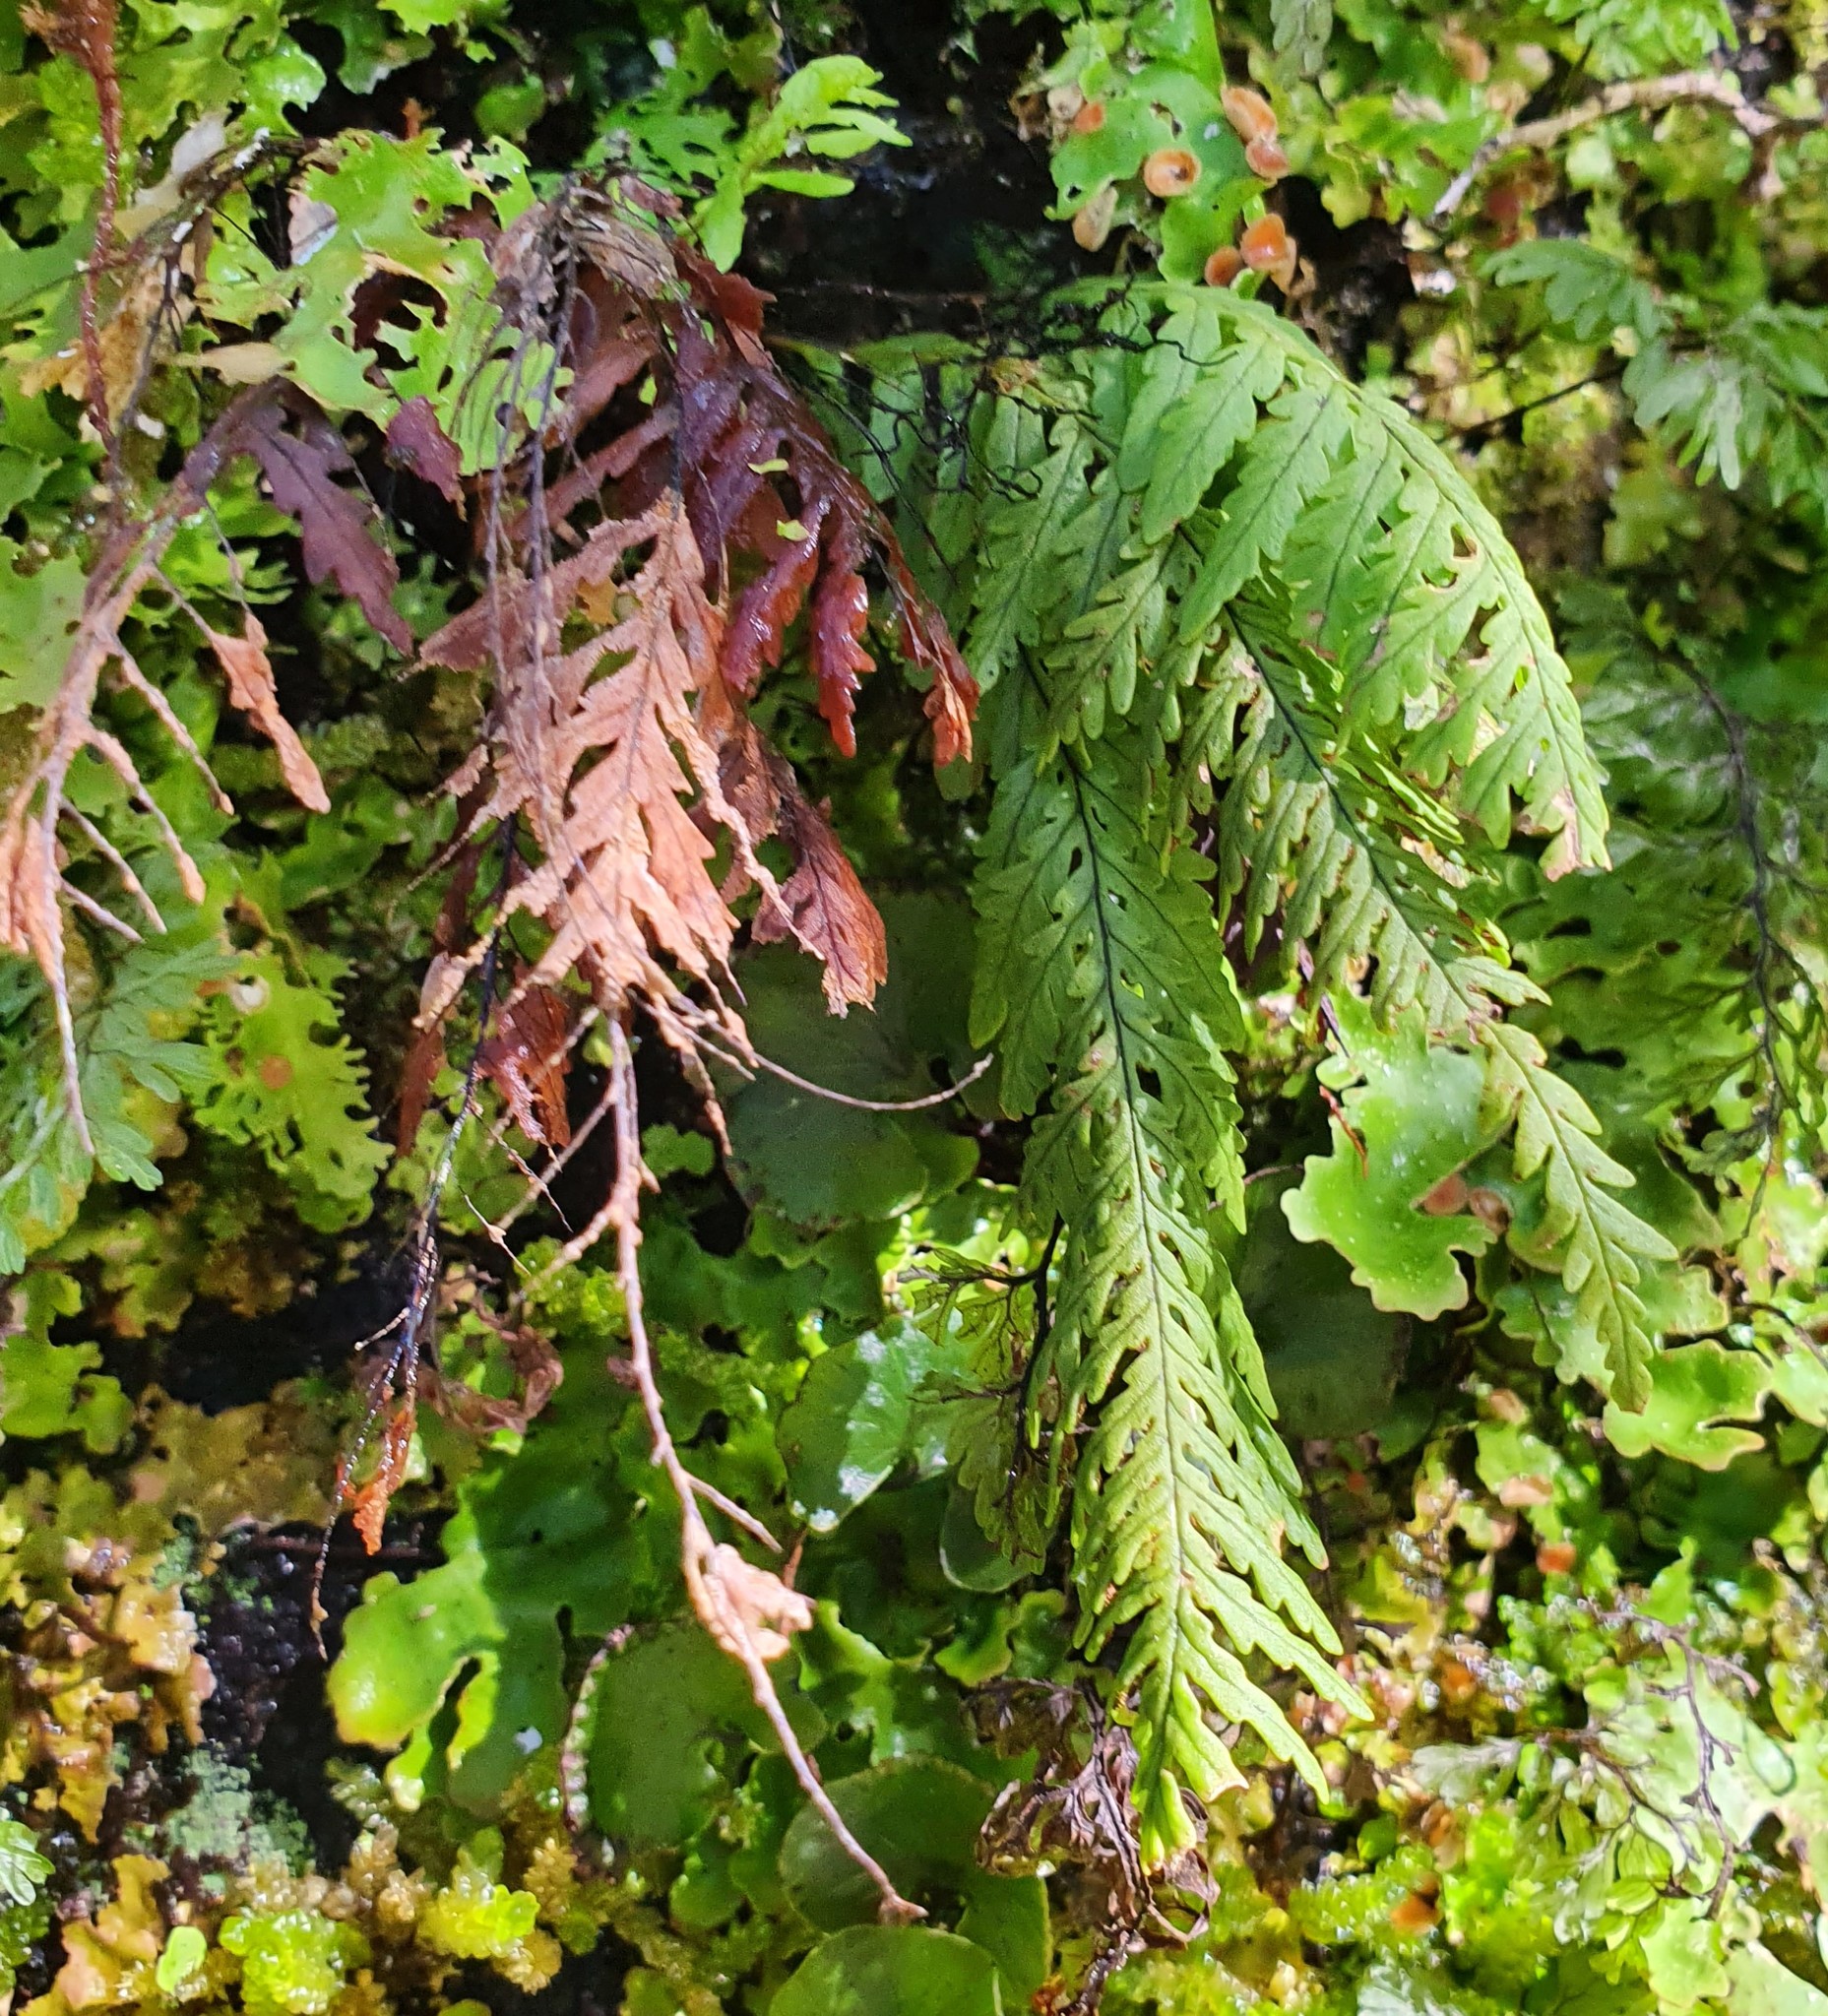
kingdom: Plantae
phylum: Tracheophyta
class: Polypodiopsida
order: Polypodiales
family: Polypodiaceae
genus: Notogrammitis
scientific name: Notogrammitis heterophylla
